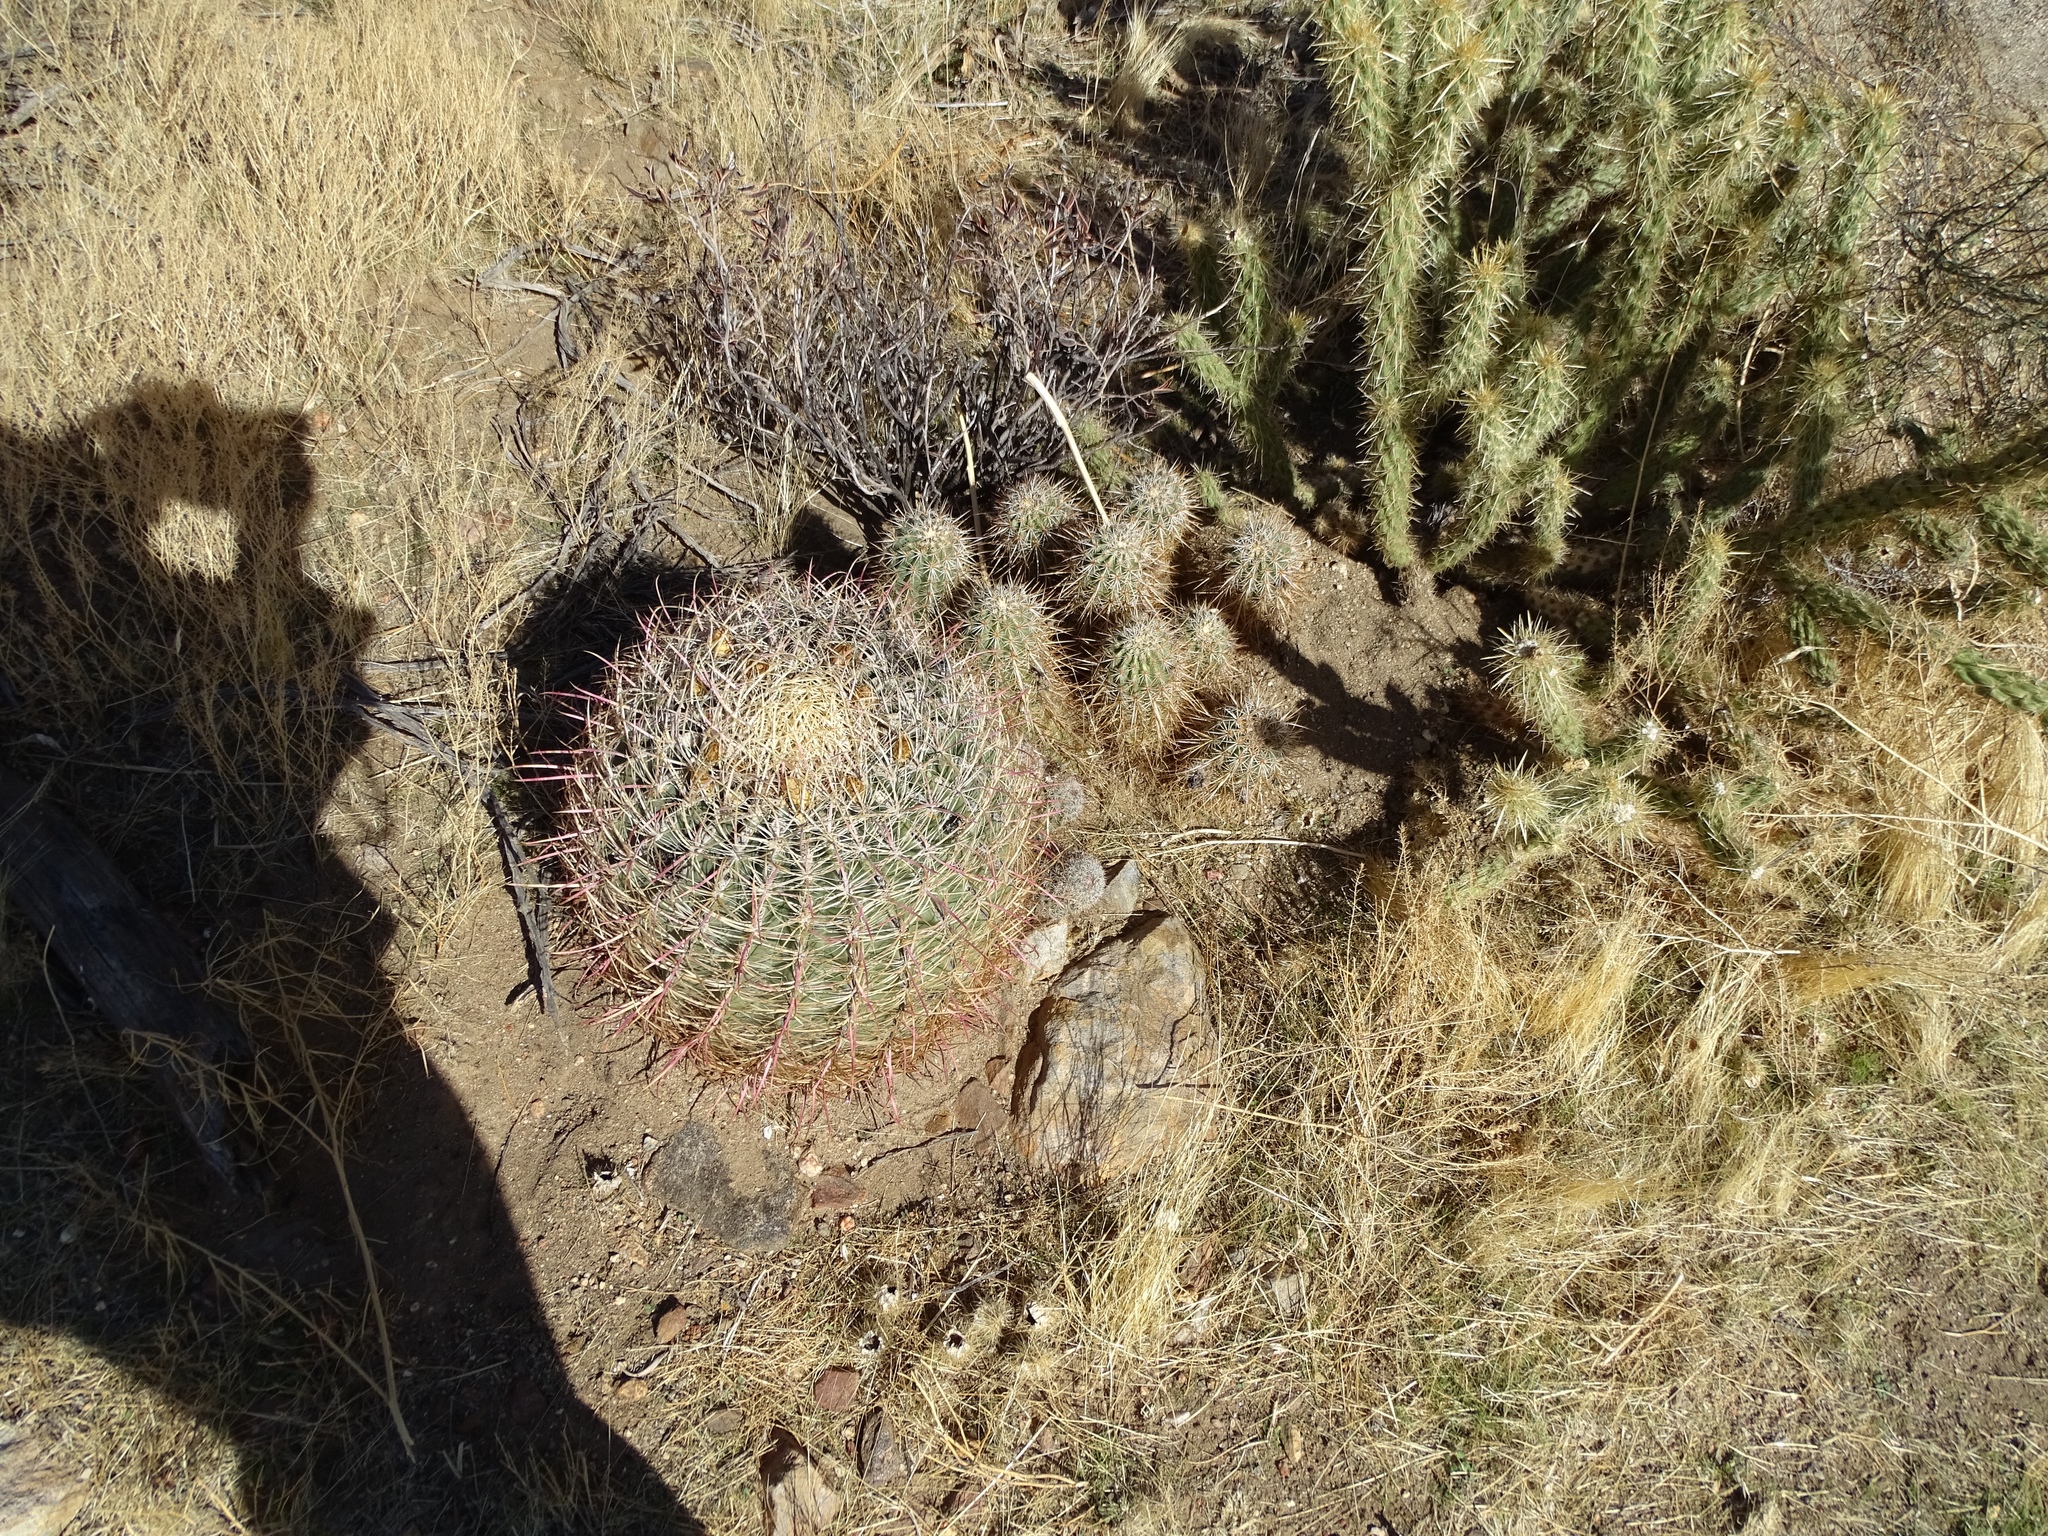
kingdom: Plantae
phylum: Tracheophyta
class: Magnoliopsida
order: Caryophyllales
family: Cactaceae
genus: Ferocactus
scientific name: Ferocactus cylindraceus
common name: California barrel cactus
